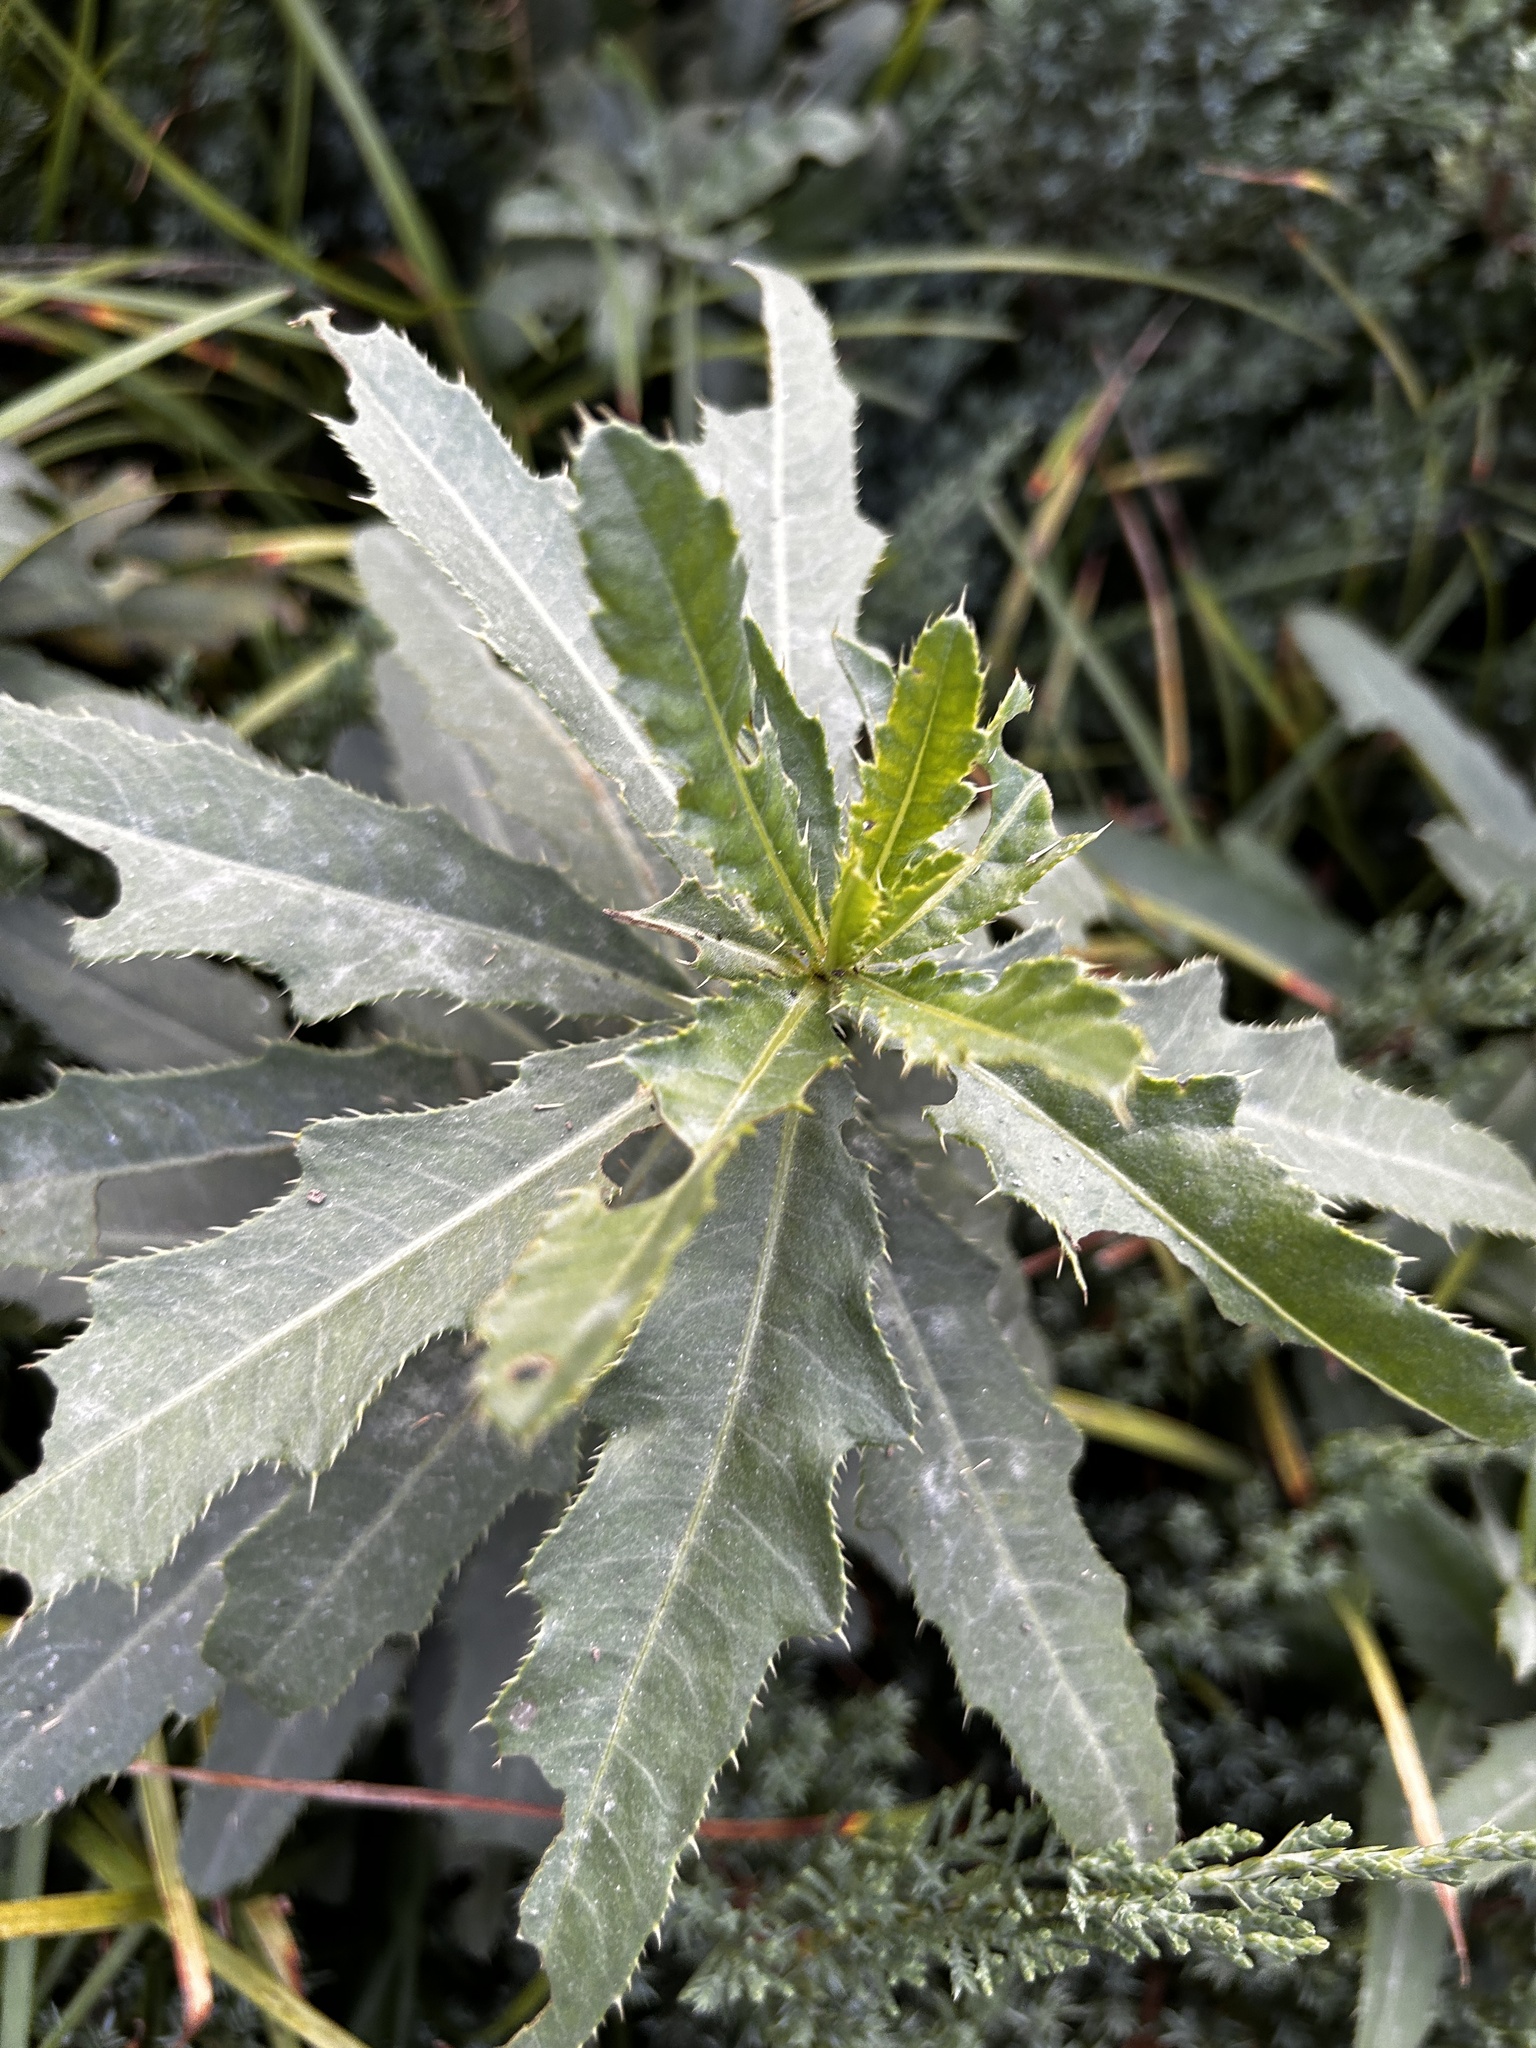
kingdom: Plantae
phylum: Tracheophyta
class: Magnoliopsida
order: Asterales
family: Asteraceae
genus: Cirsium
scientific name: Cirsium arvense
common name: Creeping thistle
